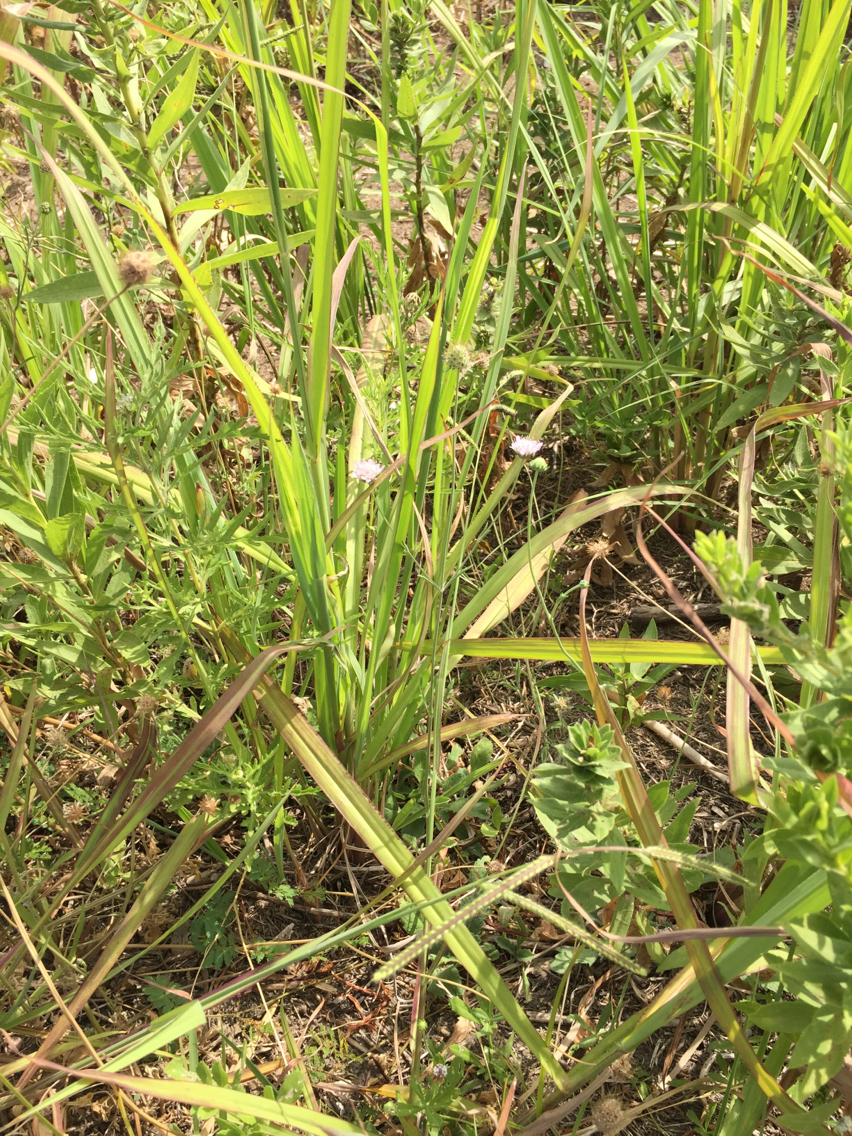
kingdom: Plantae
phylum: Tracheophyta
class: Magnoliopsida
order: Dipsacales
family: Caprifoliaceae
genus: Sixalix
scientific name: Sixalix atropurpurea
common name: Sweet scabious
